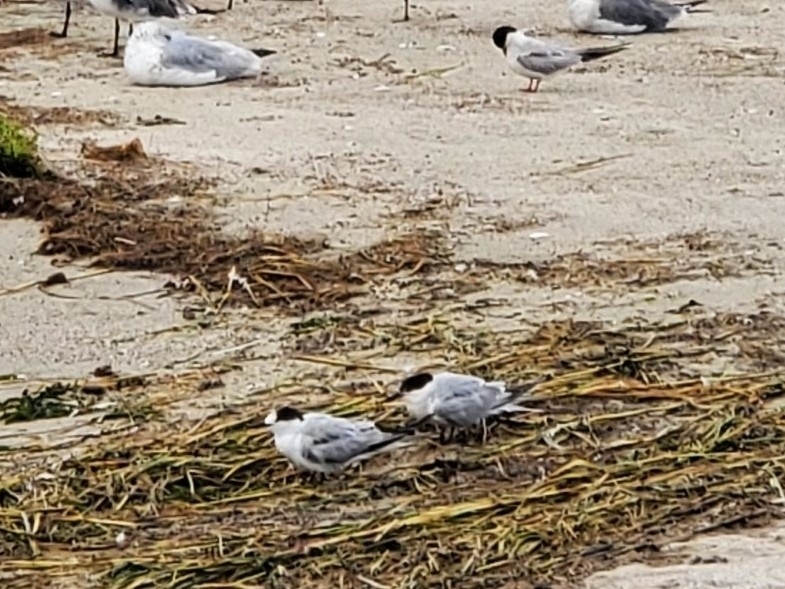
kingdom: Animalia
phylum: Chordata
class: Aves
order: Charadriiformes
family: Laridae
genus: Sterna
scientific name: Sterna hirundo
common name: Common tern
